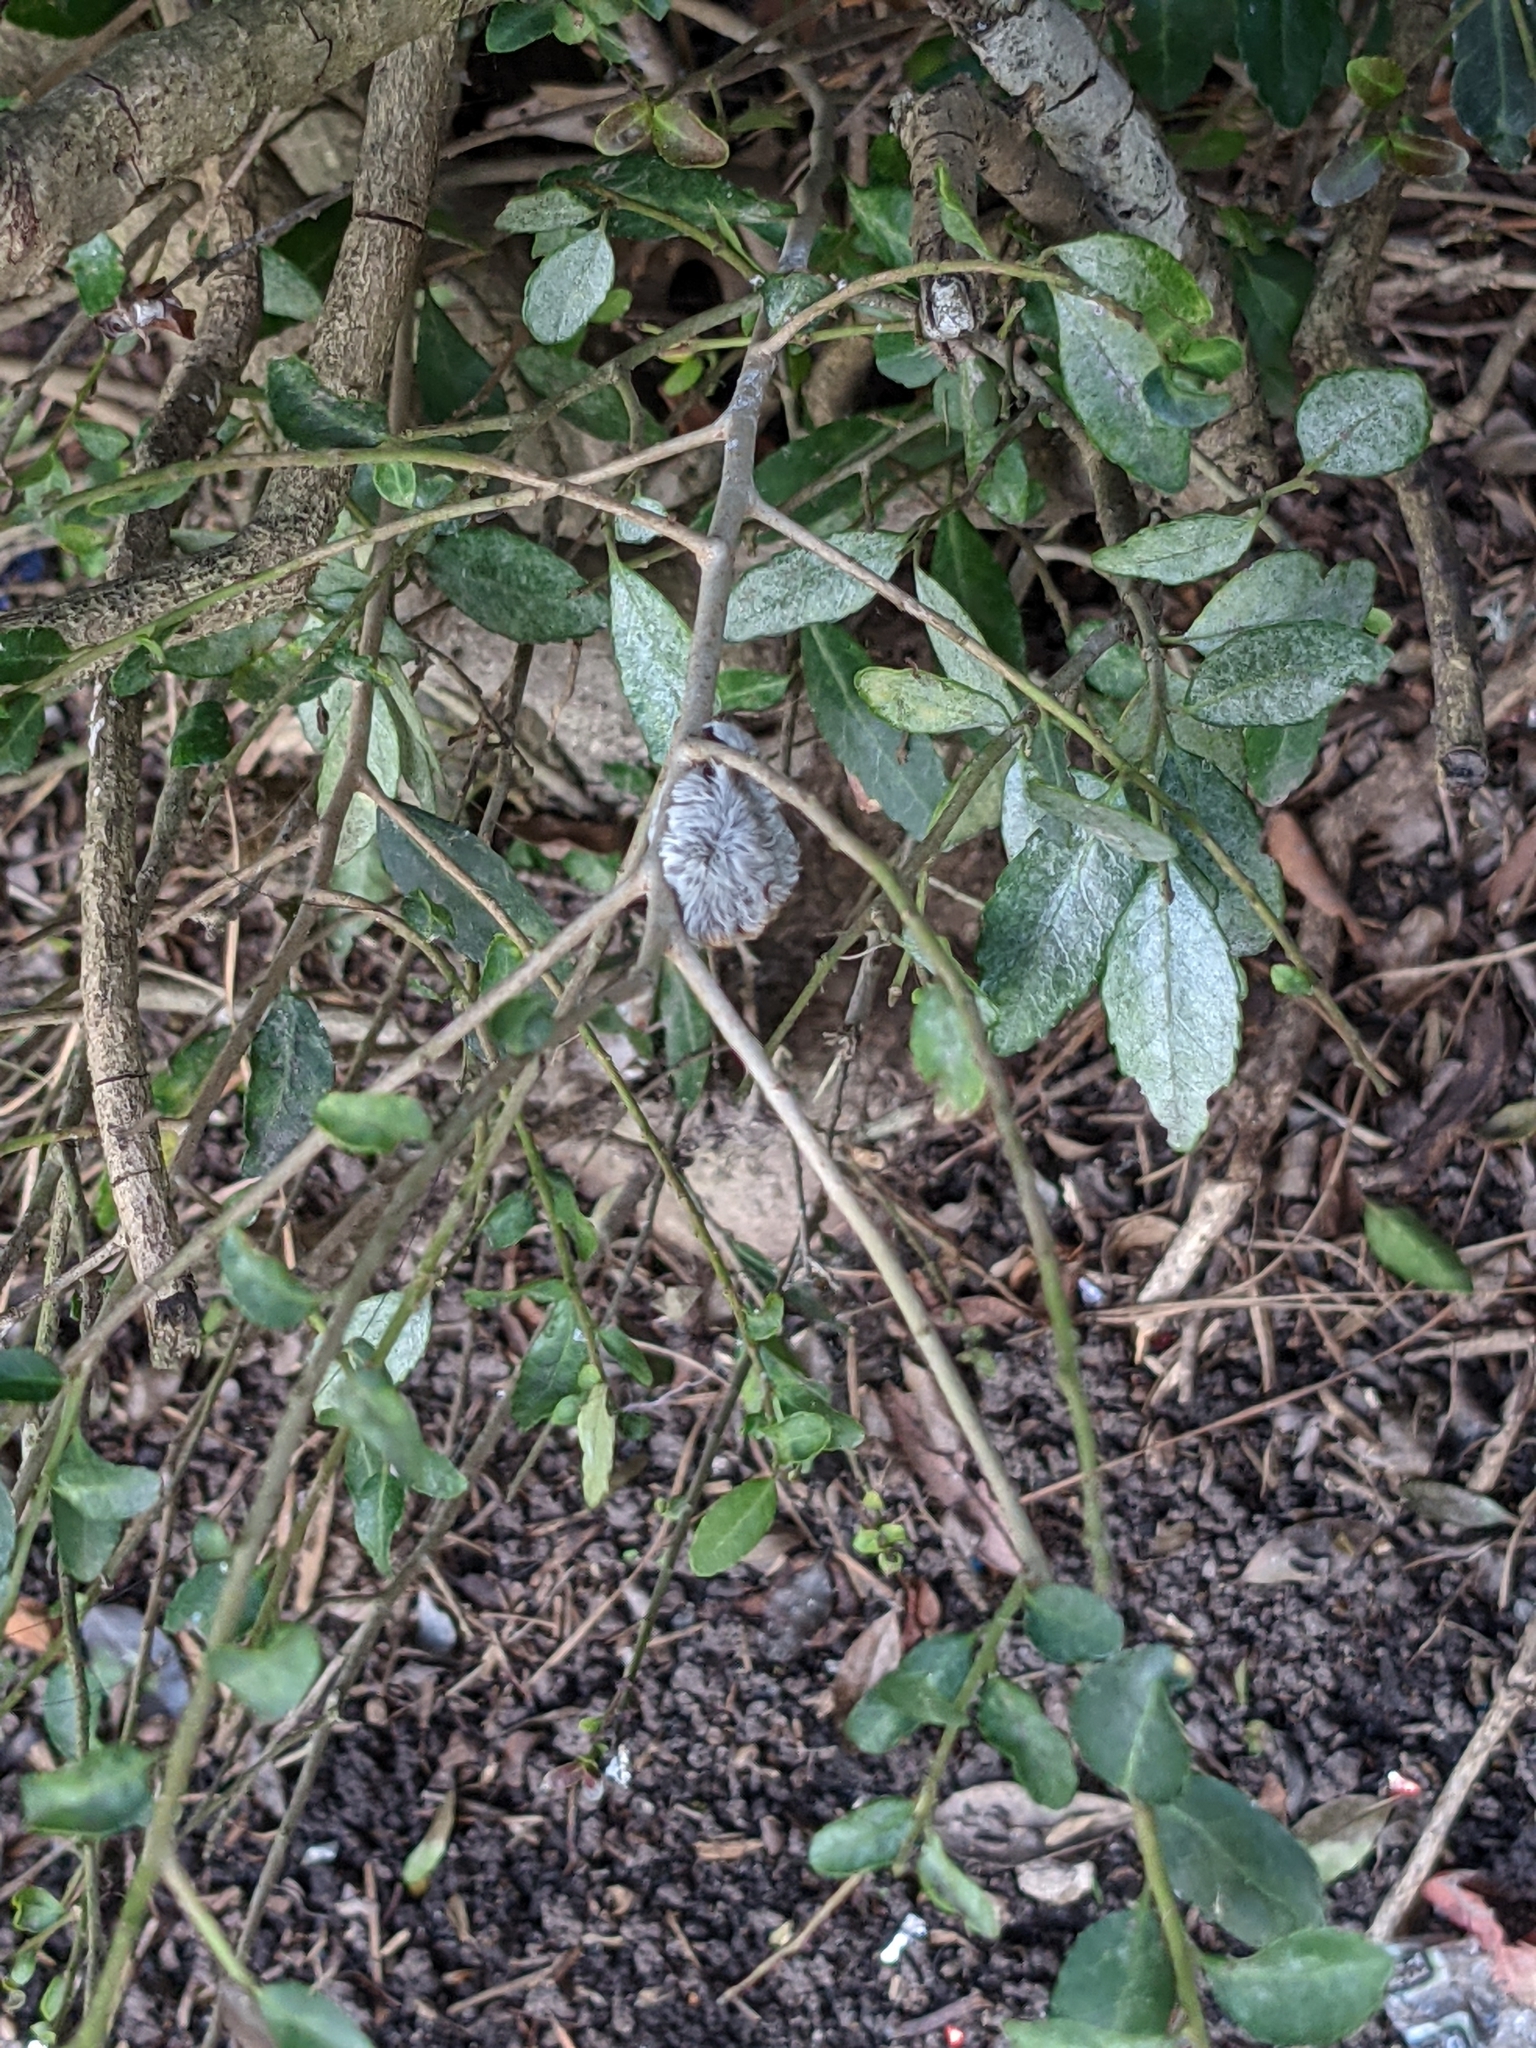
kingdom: Animalia
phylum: Arthropoda
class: Insecta
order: Lepidoptera
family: Megalopygidae
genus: Megalopyge
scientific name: Megalopyge opercularis
